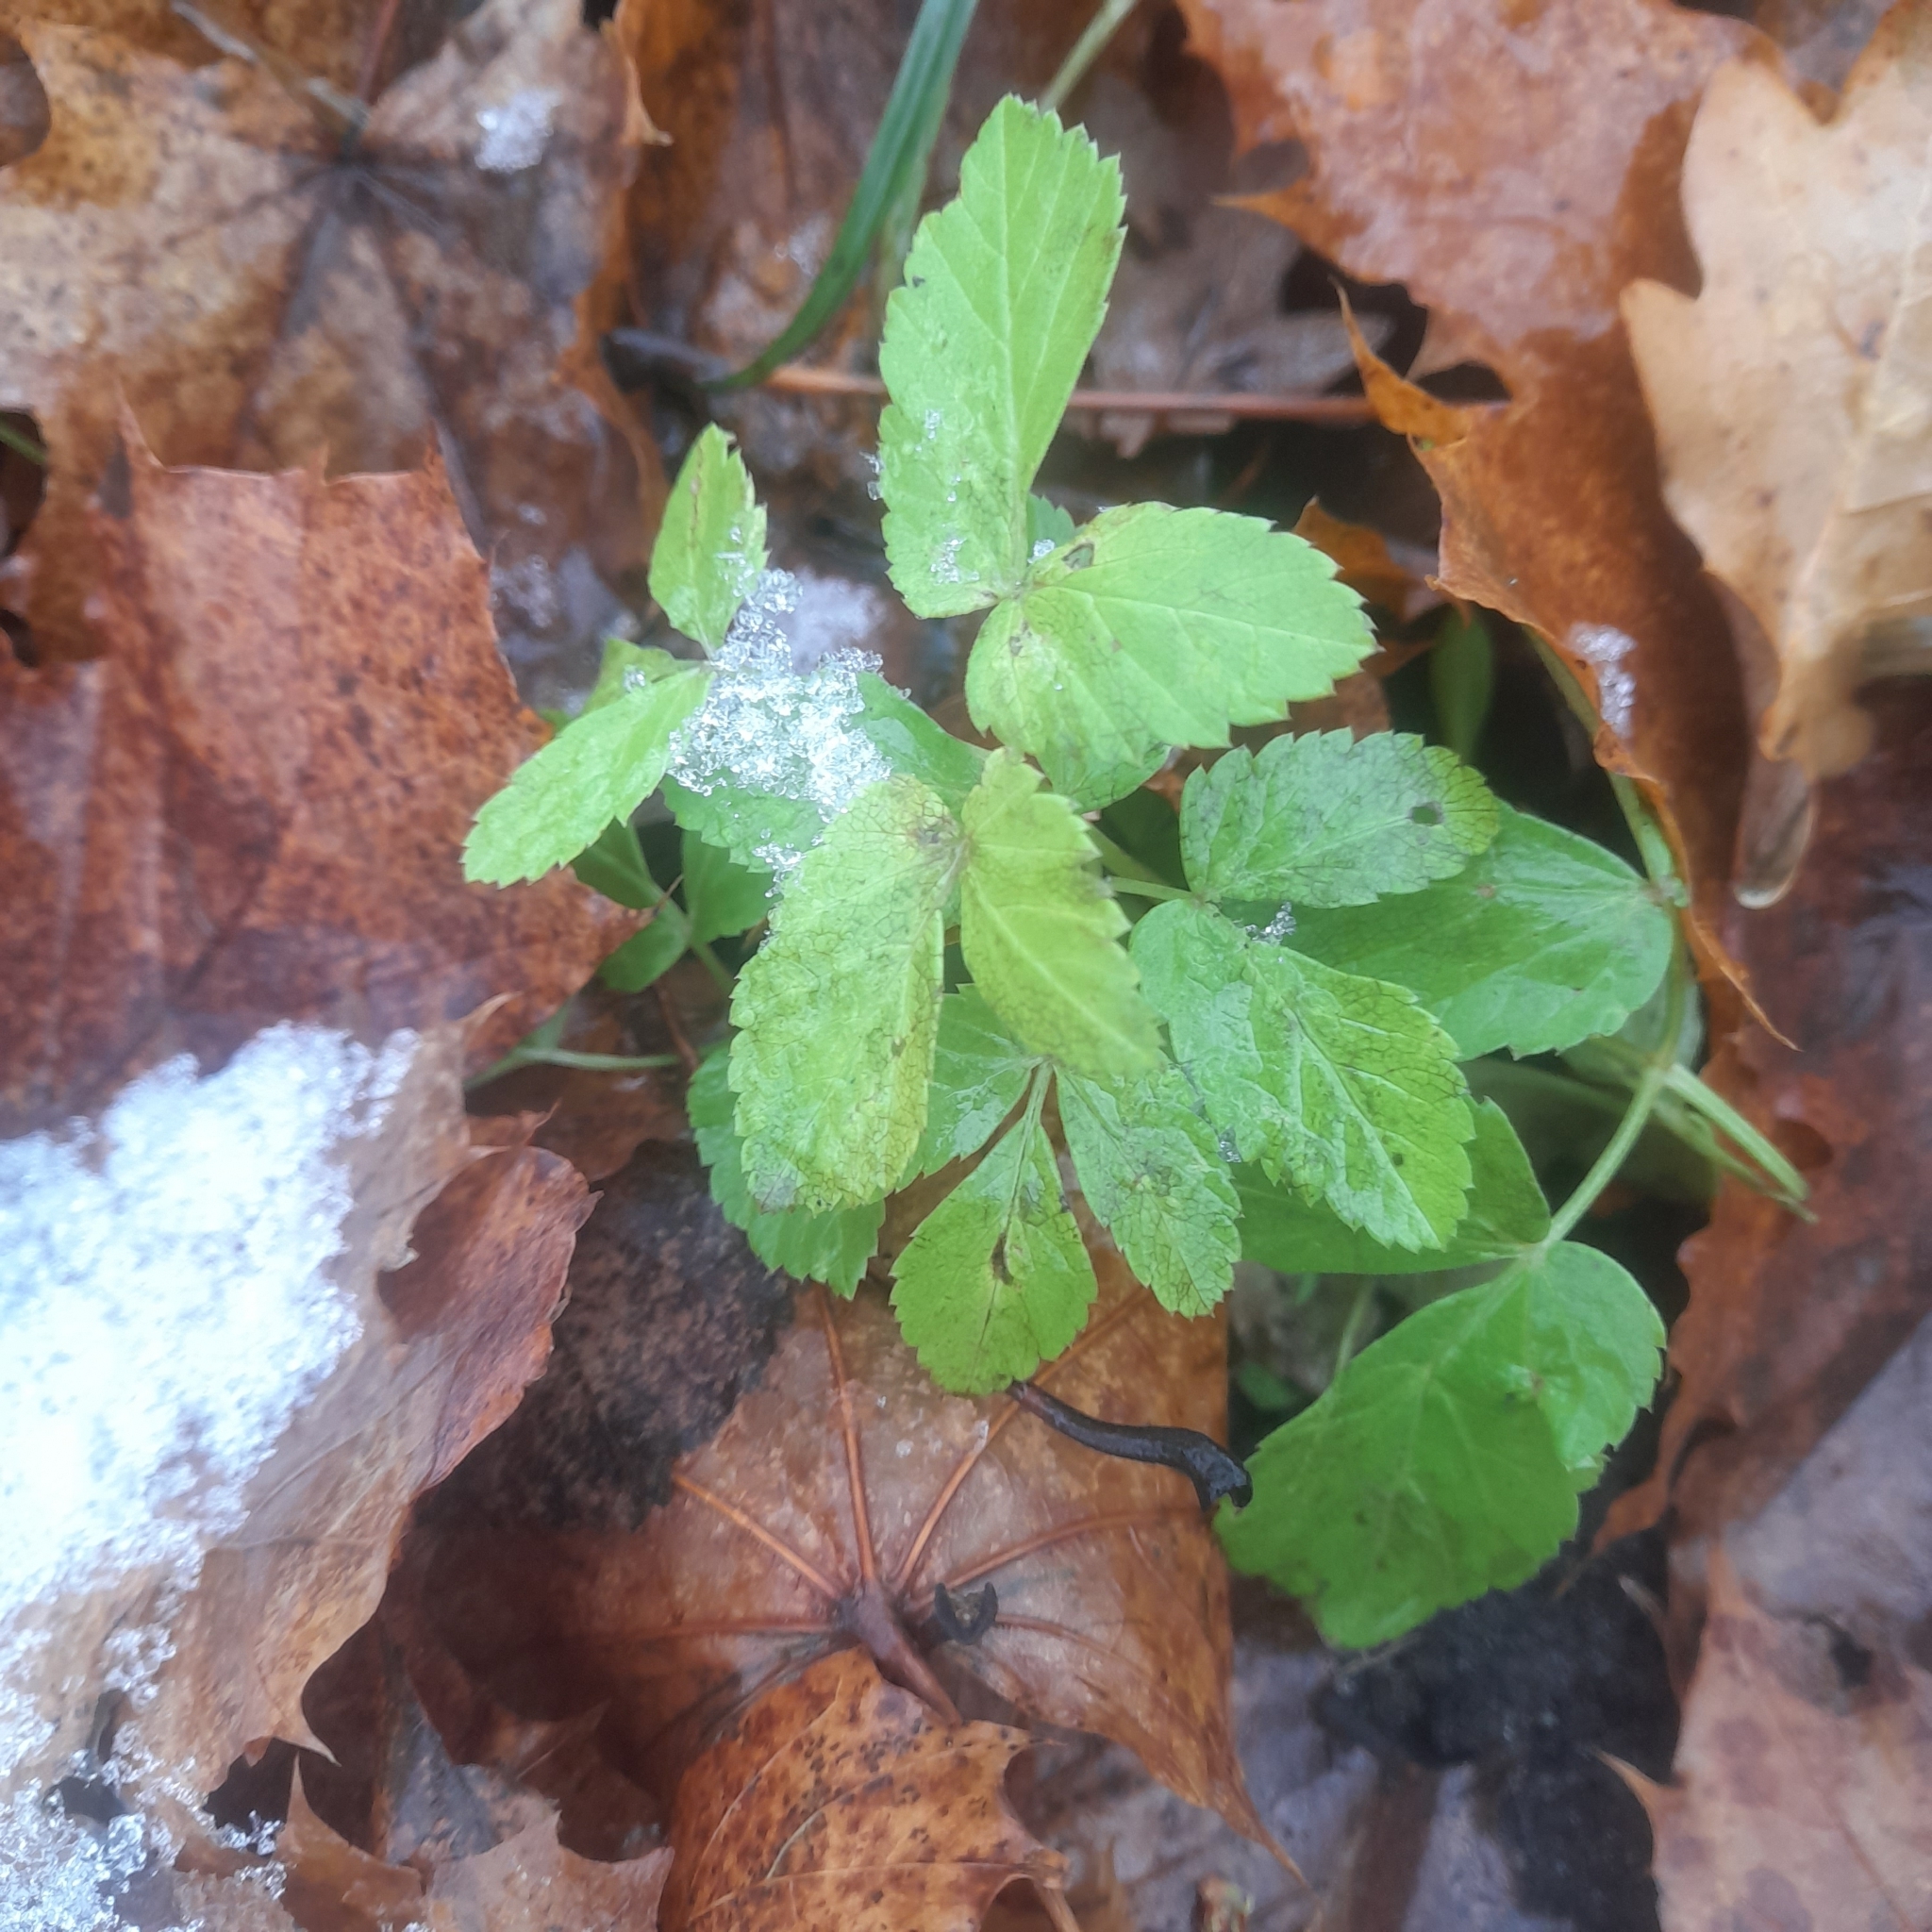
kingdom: Plantae
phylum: Tracheophyta
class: Magnoliopsida
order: Apiales
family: Apiaceae
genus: Aegopodium
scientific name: Aegopodium podagraria
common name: Ground-elder
